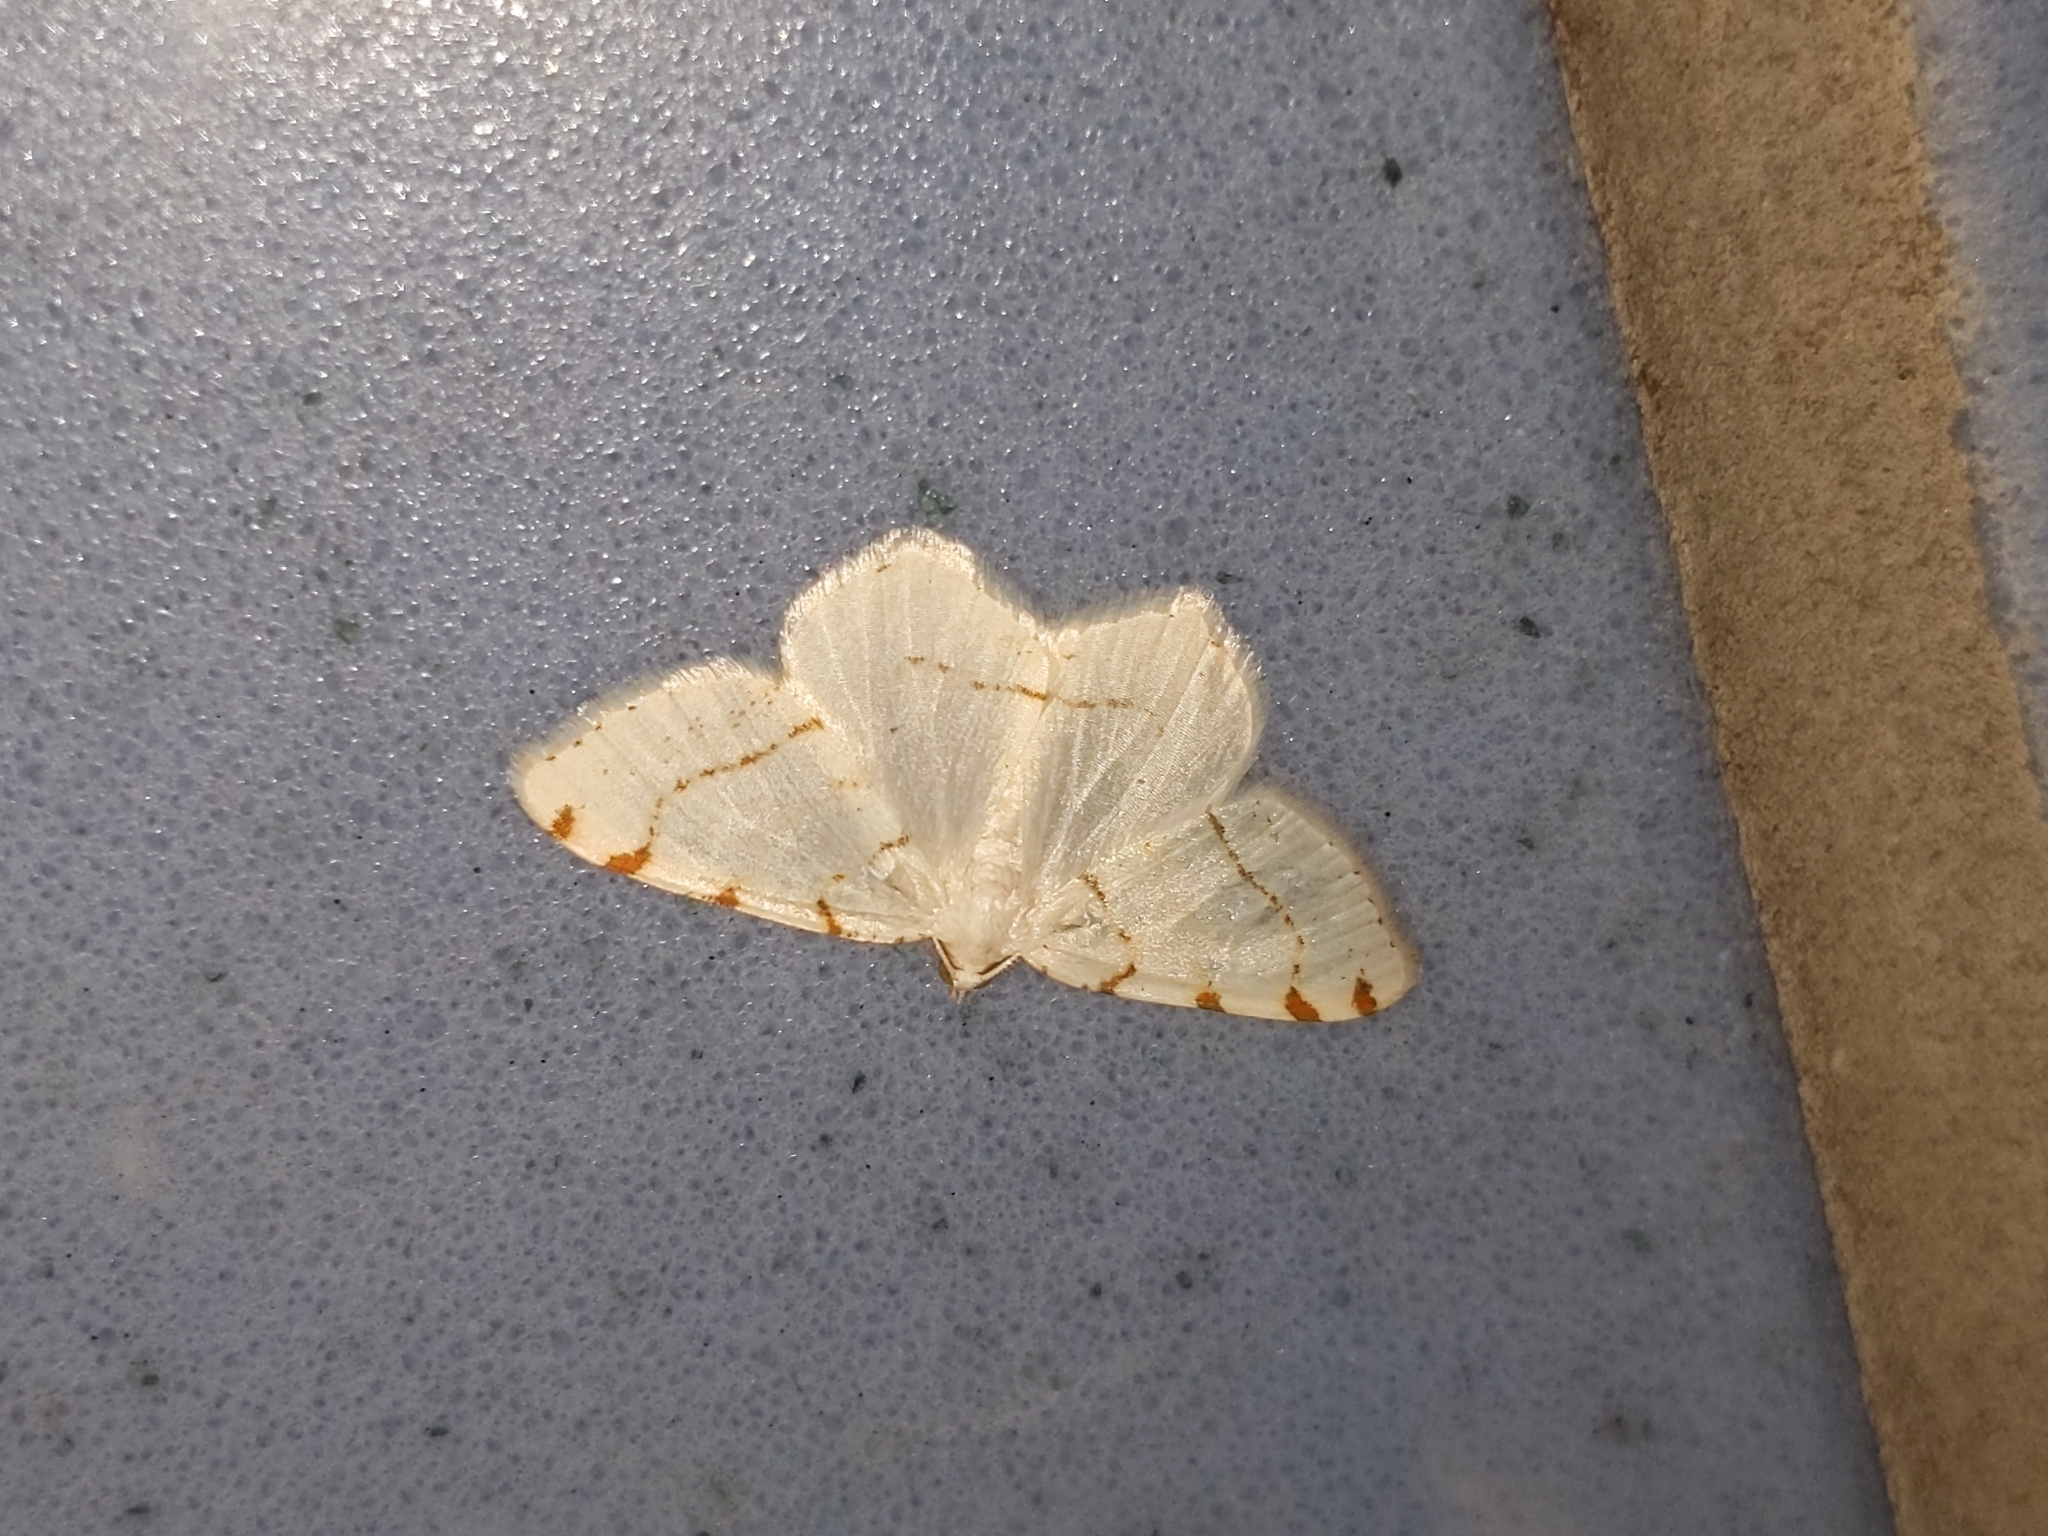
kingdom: Animalia
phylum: Arthropoda
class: Insecta
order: Lepidoptera
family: Geometridae
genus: Macaria
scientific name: Macaria pustularia
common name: Lesser maple spanworm moth
